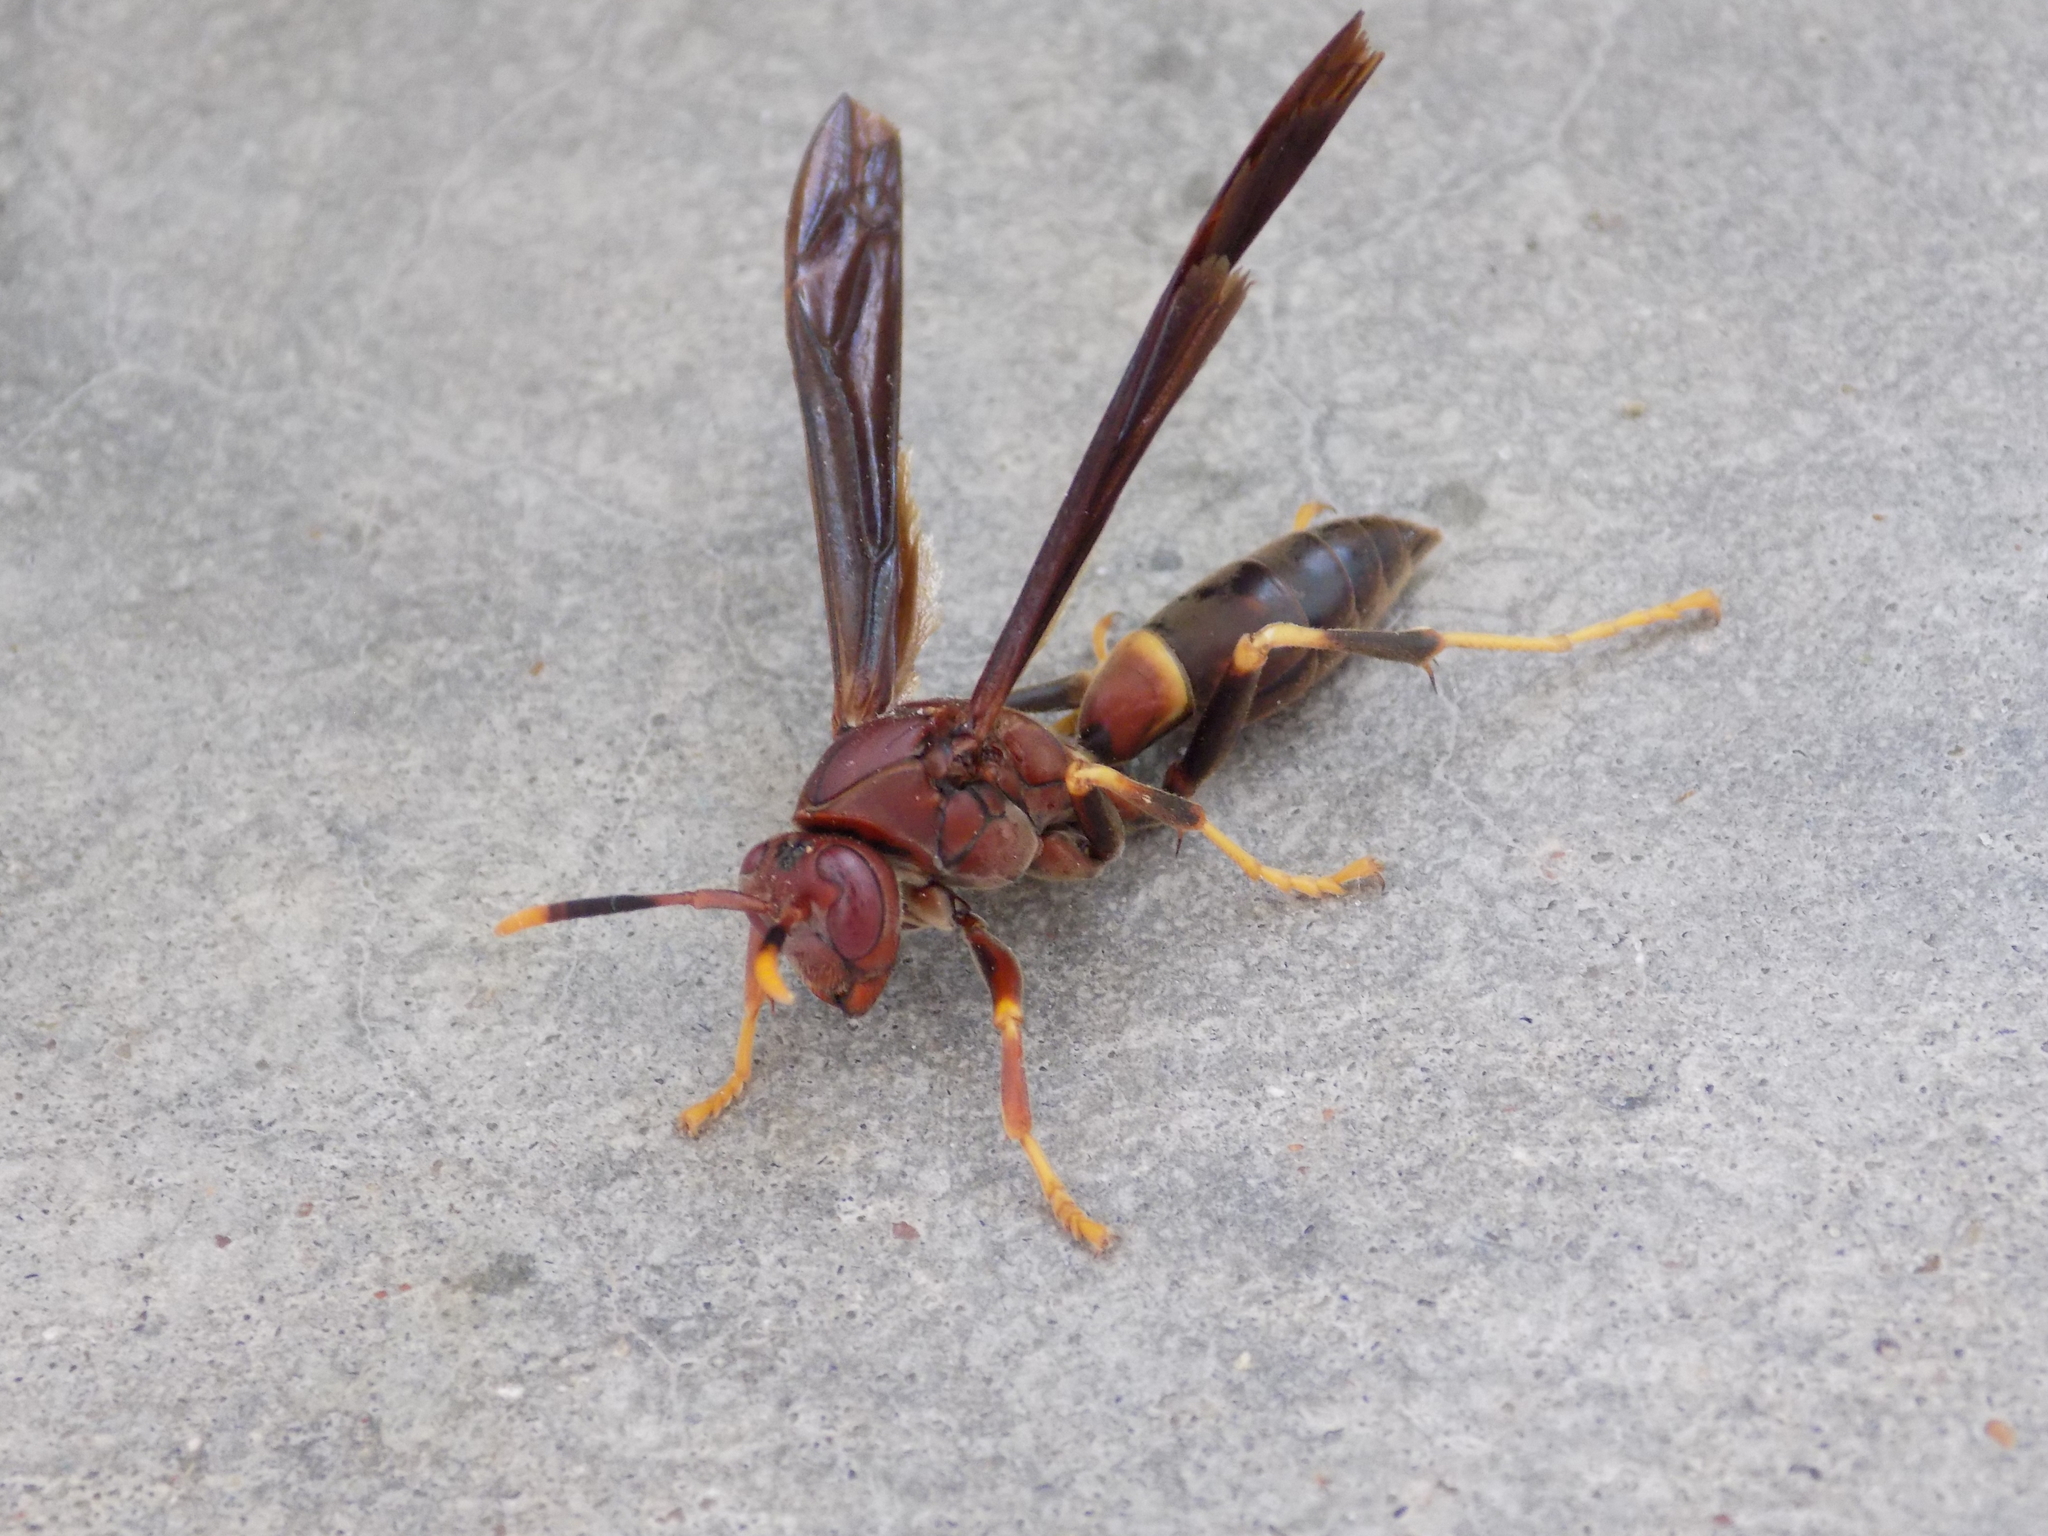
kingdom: Animalia
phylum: Arthropoda
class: Insecta
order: Hymenoptera
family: Eumenidae
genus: Polistes
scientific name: Polistes annularis
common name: Ringed paper wasp
